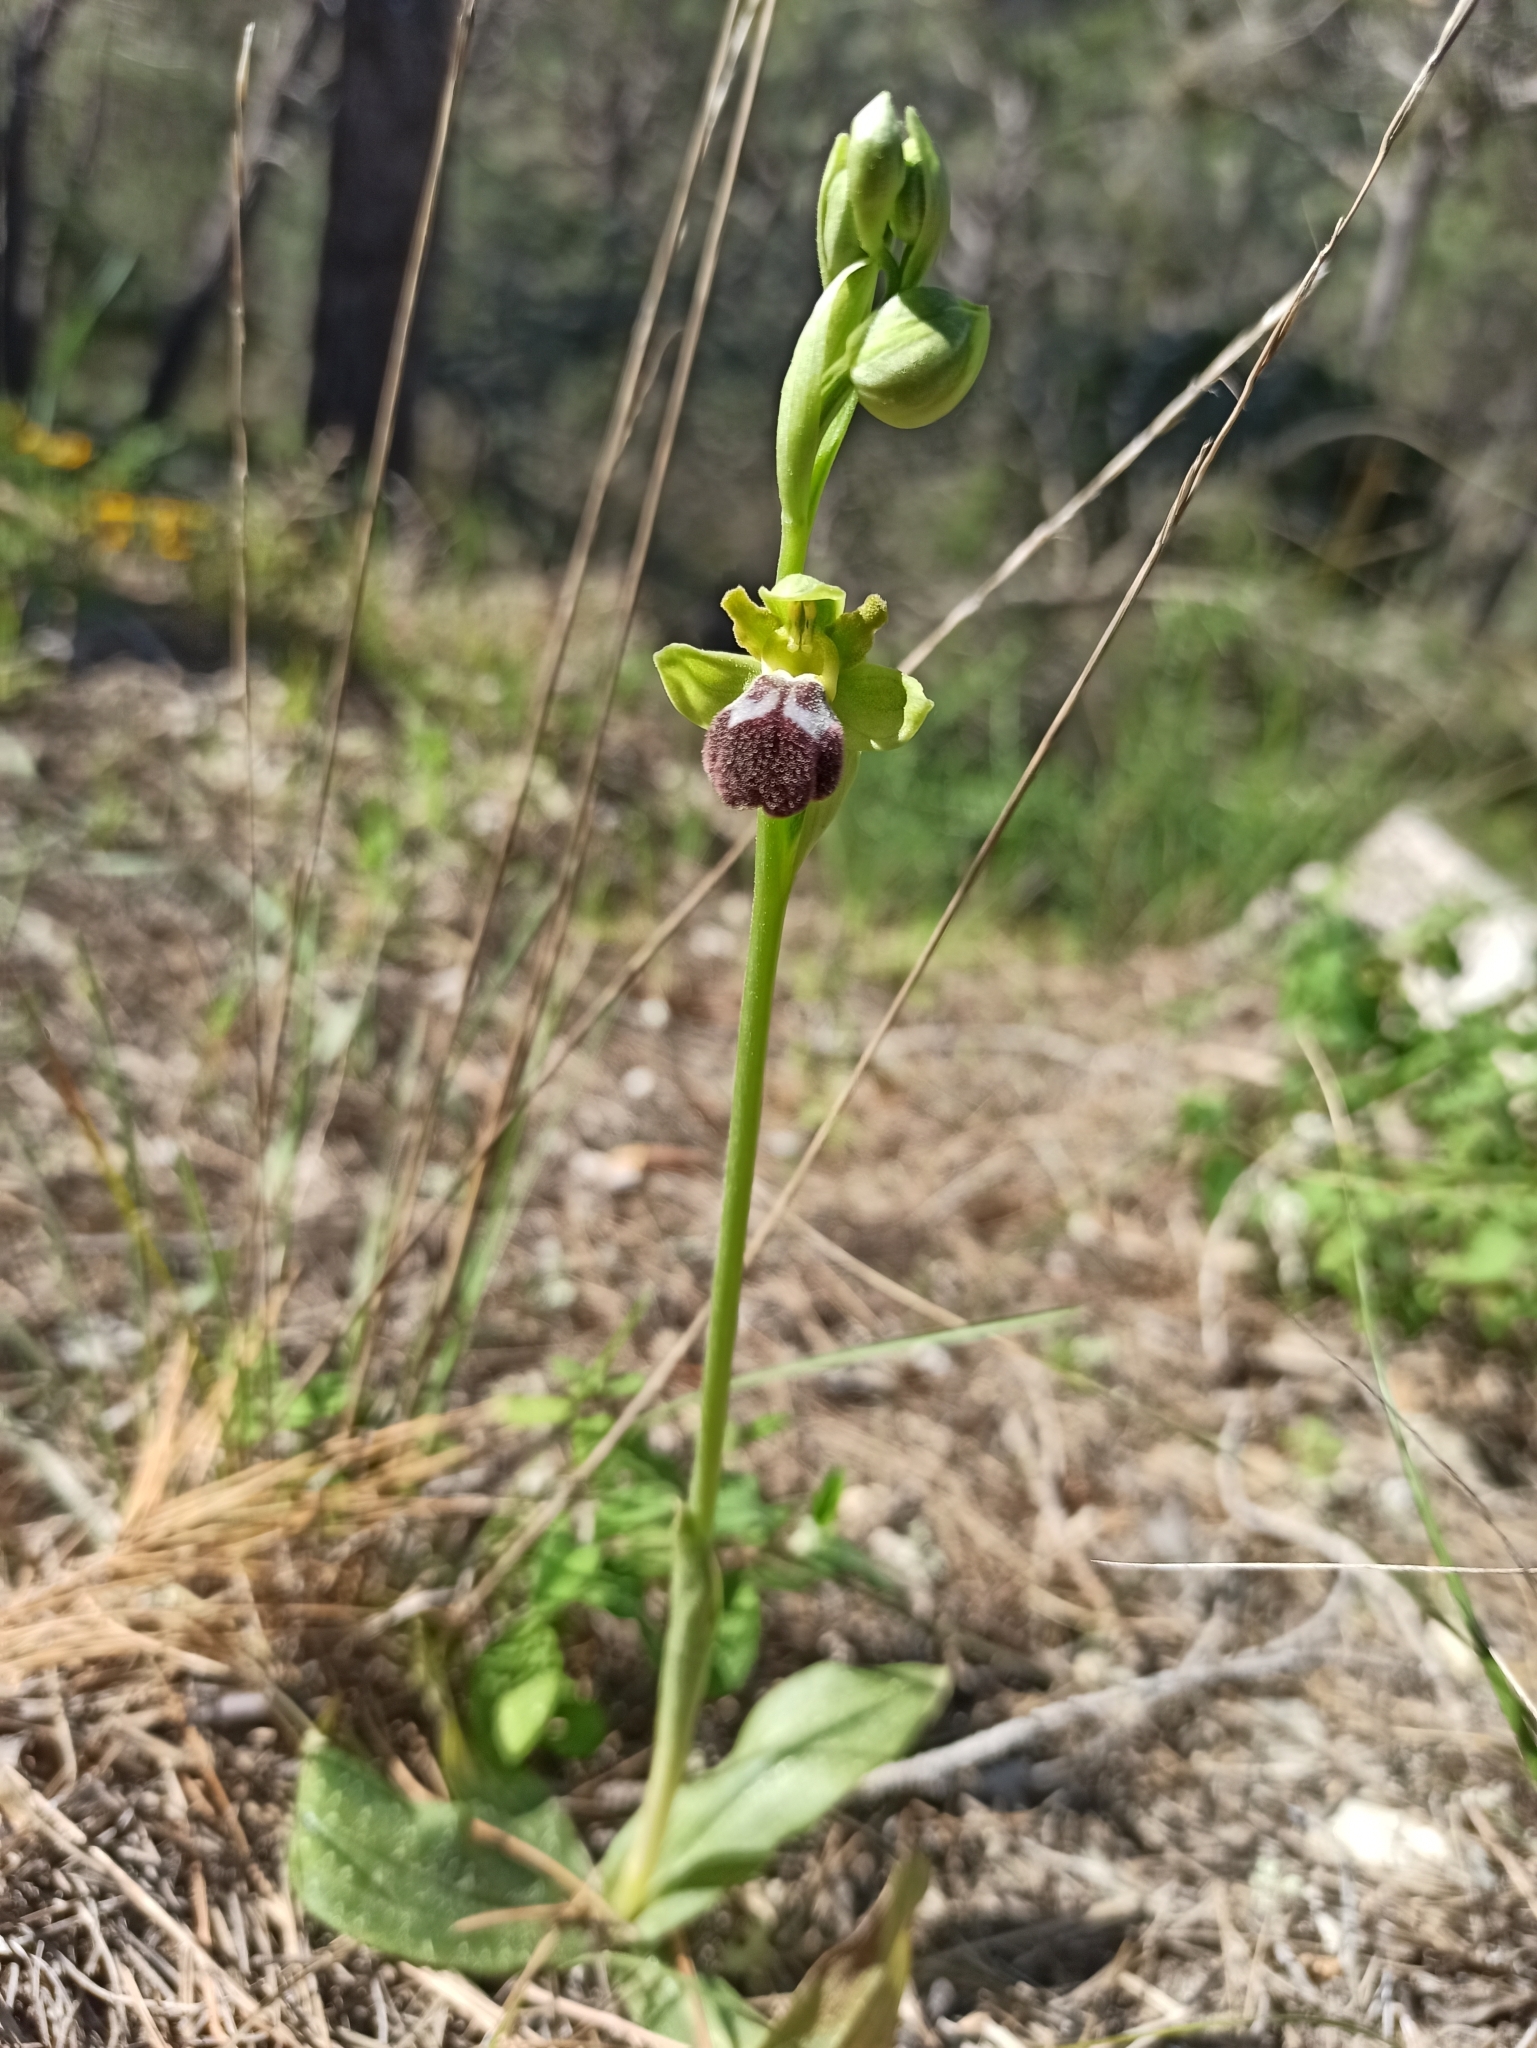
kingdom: Plantae
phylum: Tracheophyta
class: Liliopsida
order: Asparagales
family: Orchidaceae
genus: Ophrys
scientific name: Ophrys fusca
